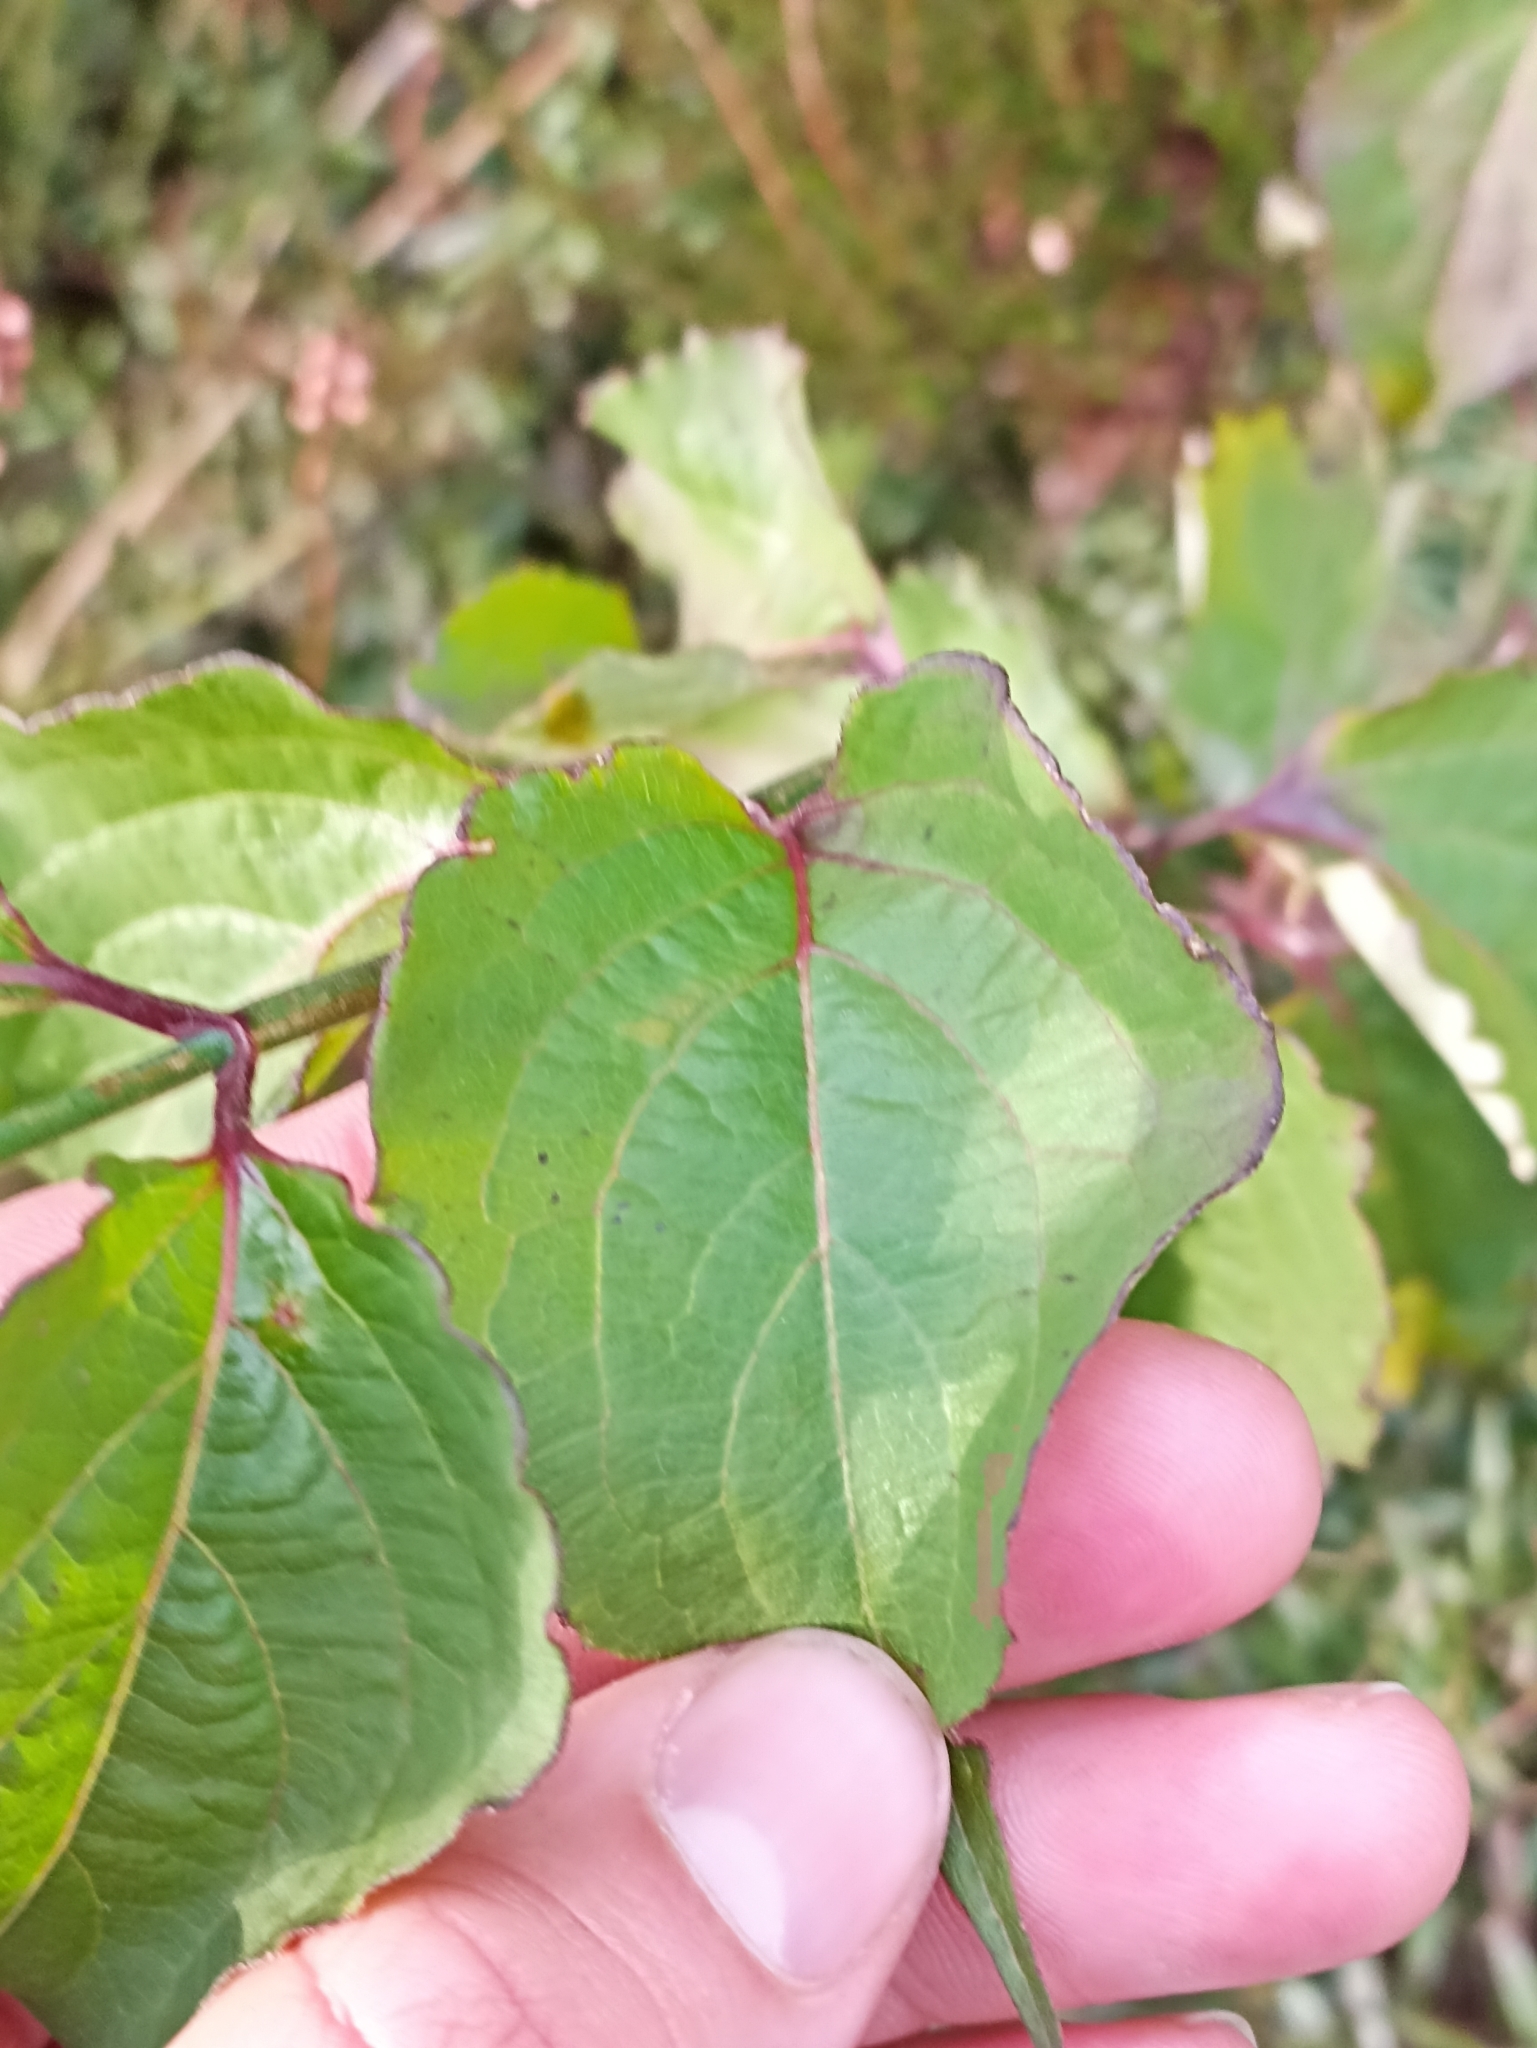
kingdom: Plantae
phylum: Tracheophyta
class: Magnoliopsida
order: Dipsacales
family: Caprifoliaceae
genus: Leycesteria
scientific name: Leycesteria formosa
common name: Himalayan honeysuckle
